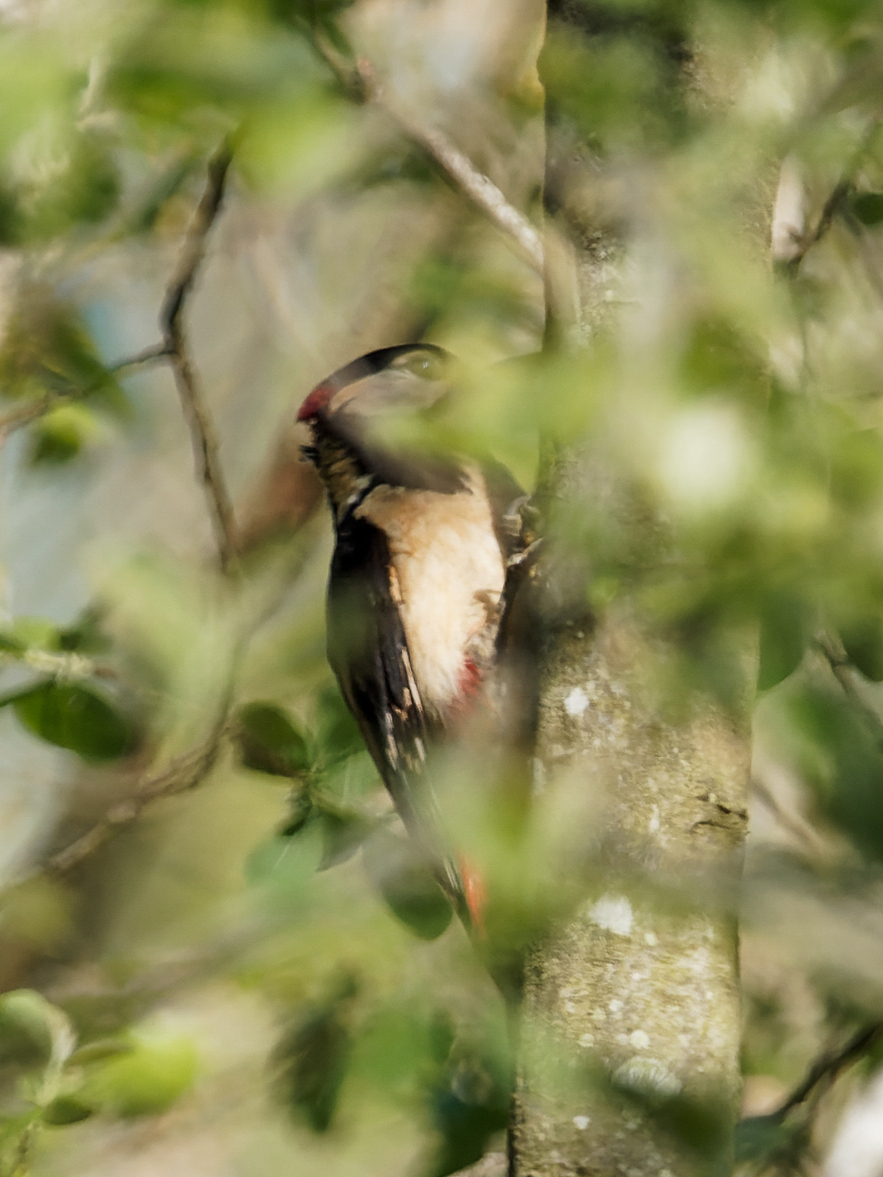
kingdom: Animalia
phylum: Chordata
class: Aves
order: Piciformes
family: Picidae
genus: Dendrocopos
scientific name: Dendrocopos major
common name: Great spotted woodpecker
